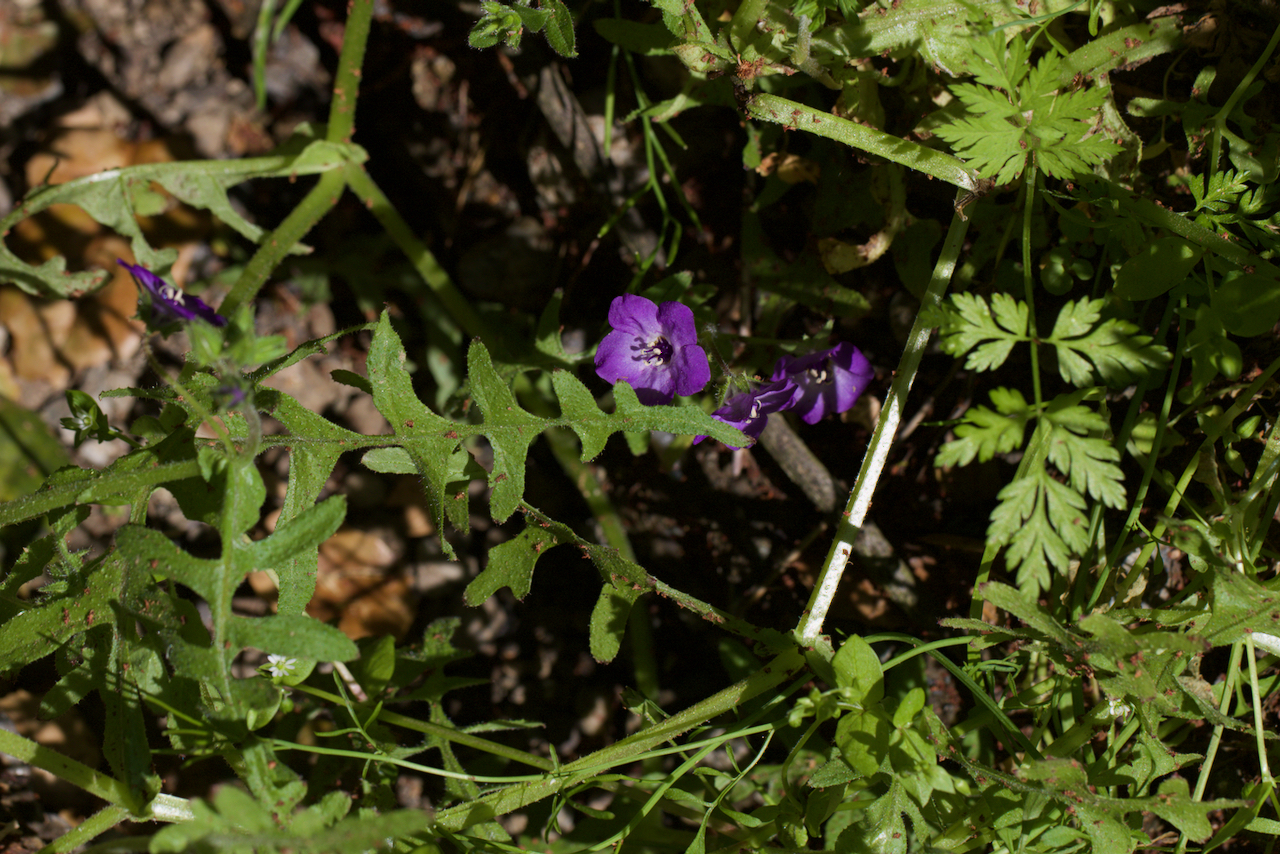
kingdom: Plantae
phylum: Tracheophyta
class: Magnoliopsida
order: Boraginales
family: Hydrophyllaceae
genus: Pholistoma
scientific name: Pholistoma auritum
